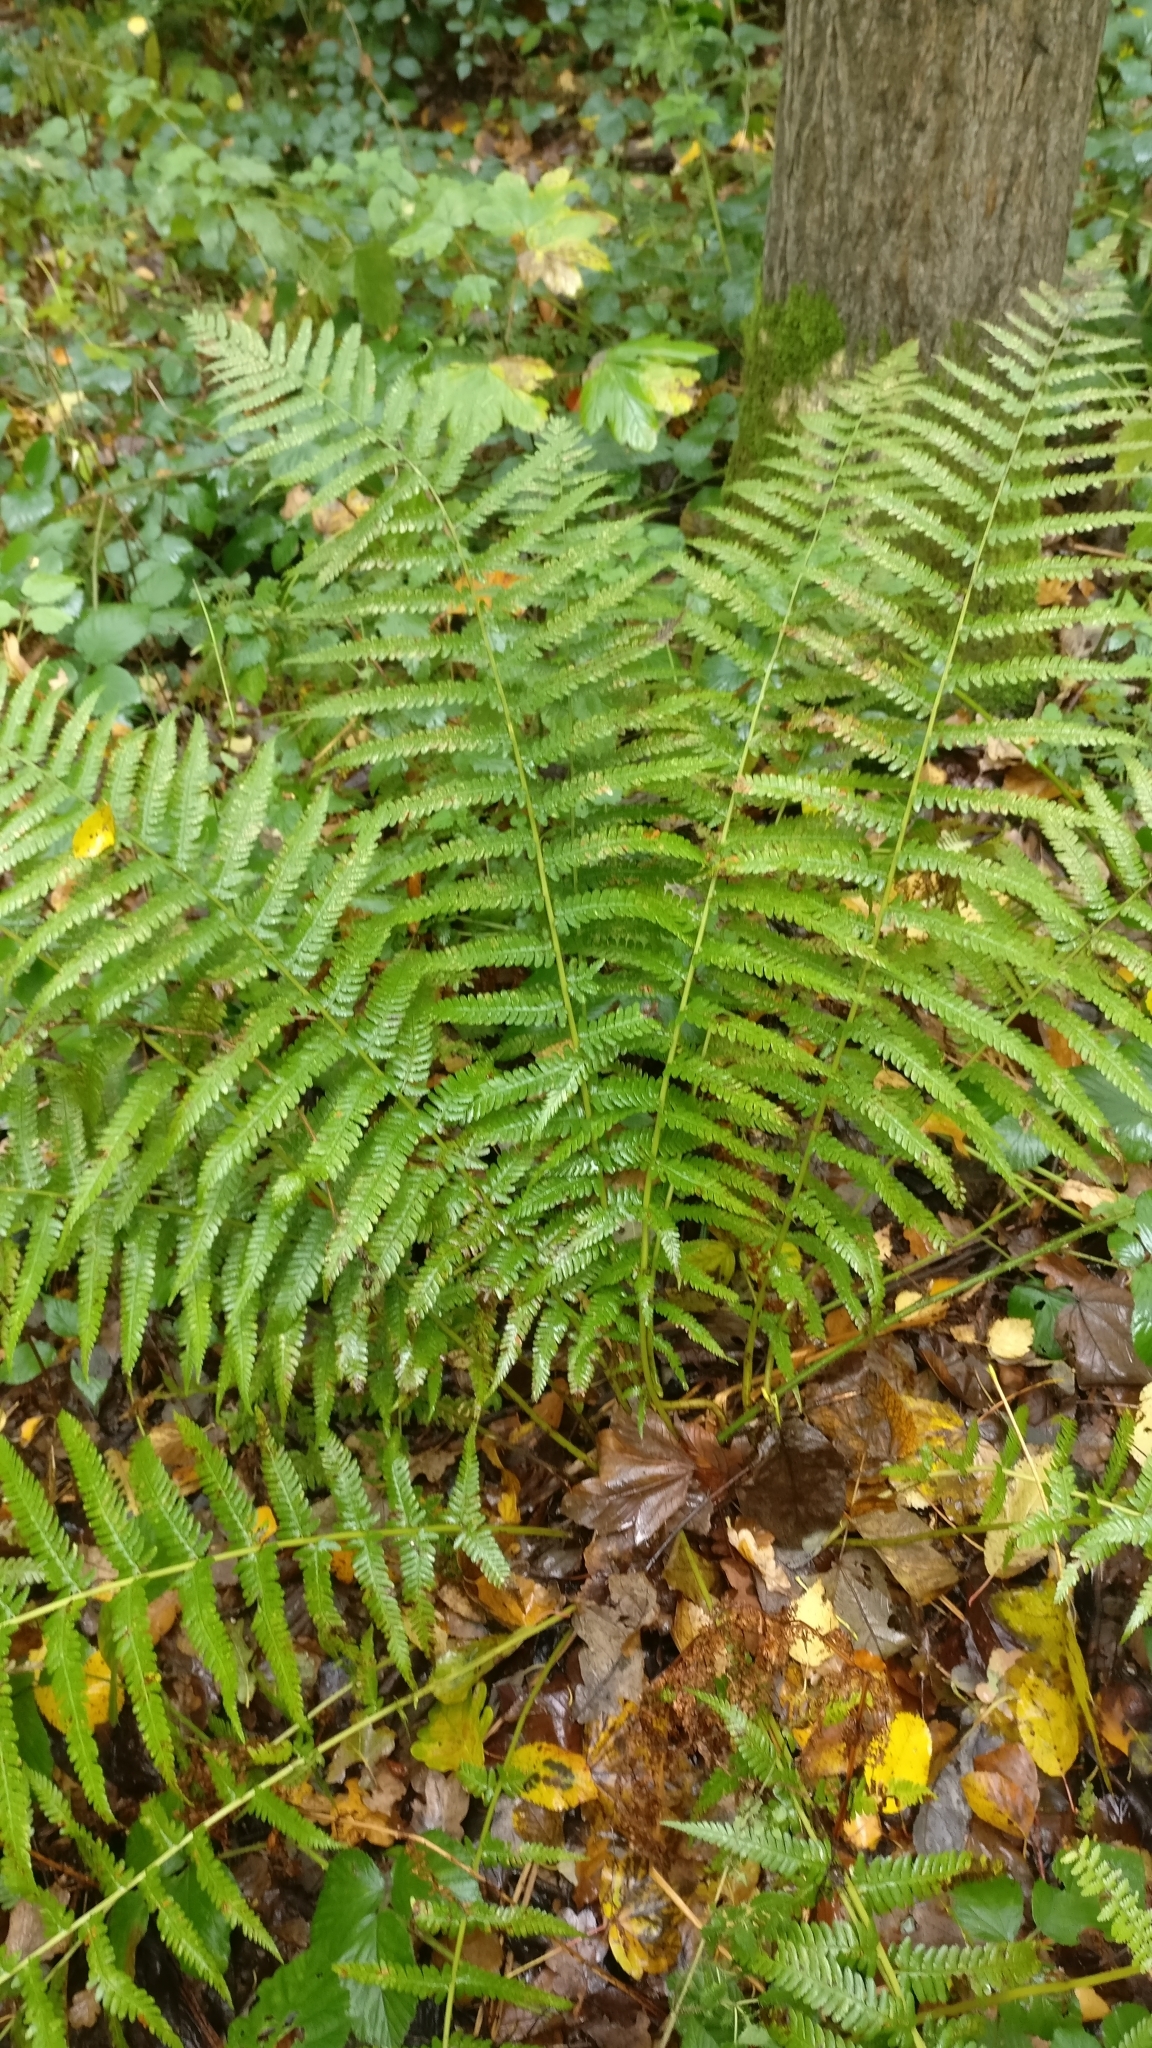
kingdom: Plantae
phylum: Tracheophyta
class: Polypodiopsida
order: Polypodiales
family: Dryopteridaceae
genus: Dryopteris
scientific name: Dryopteris filix-mas
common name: Male fern
